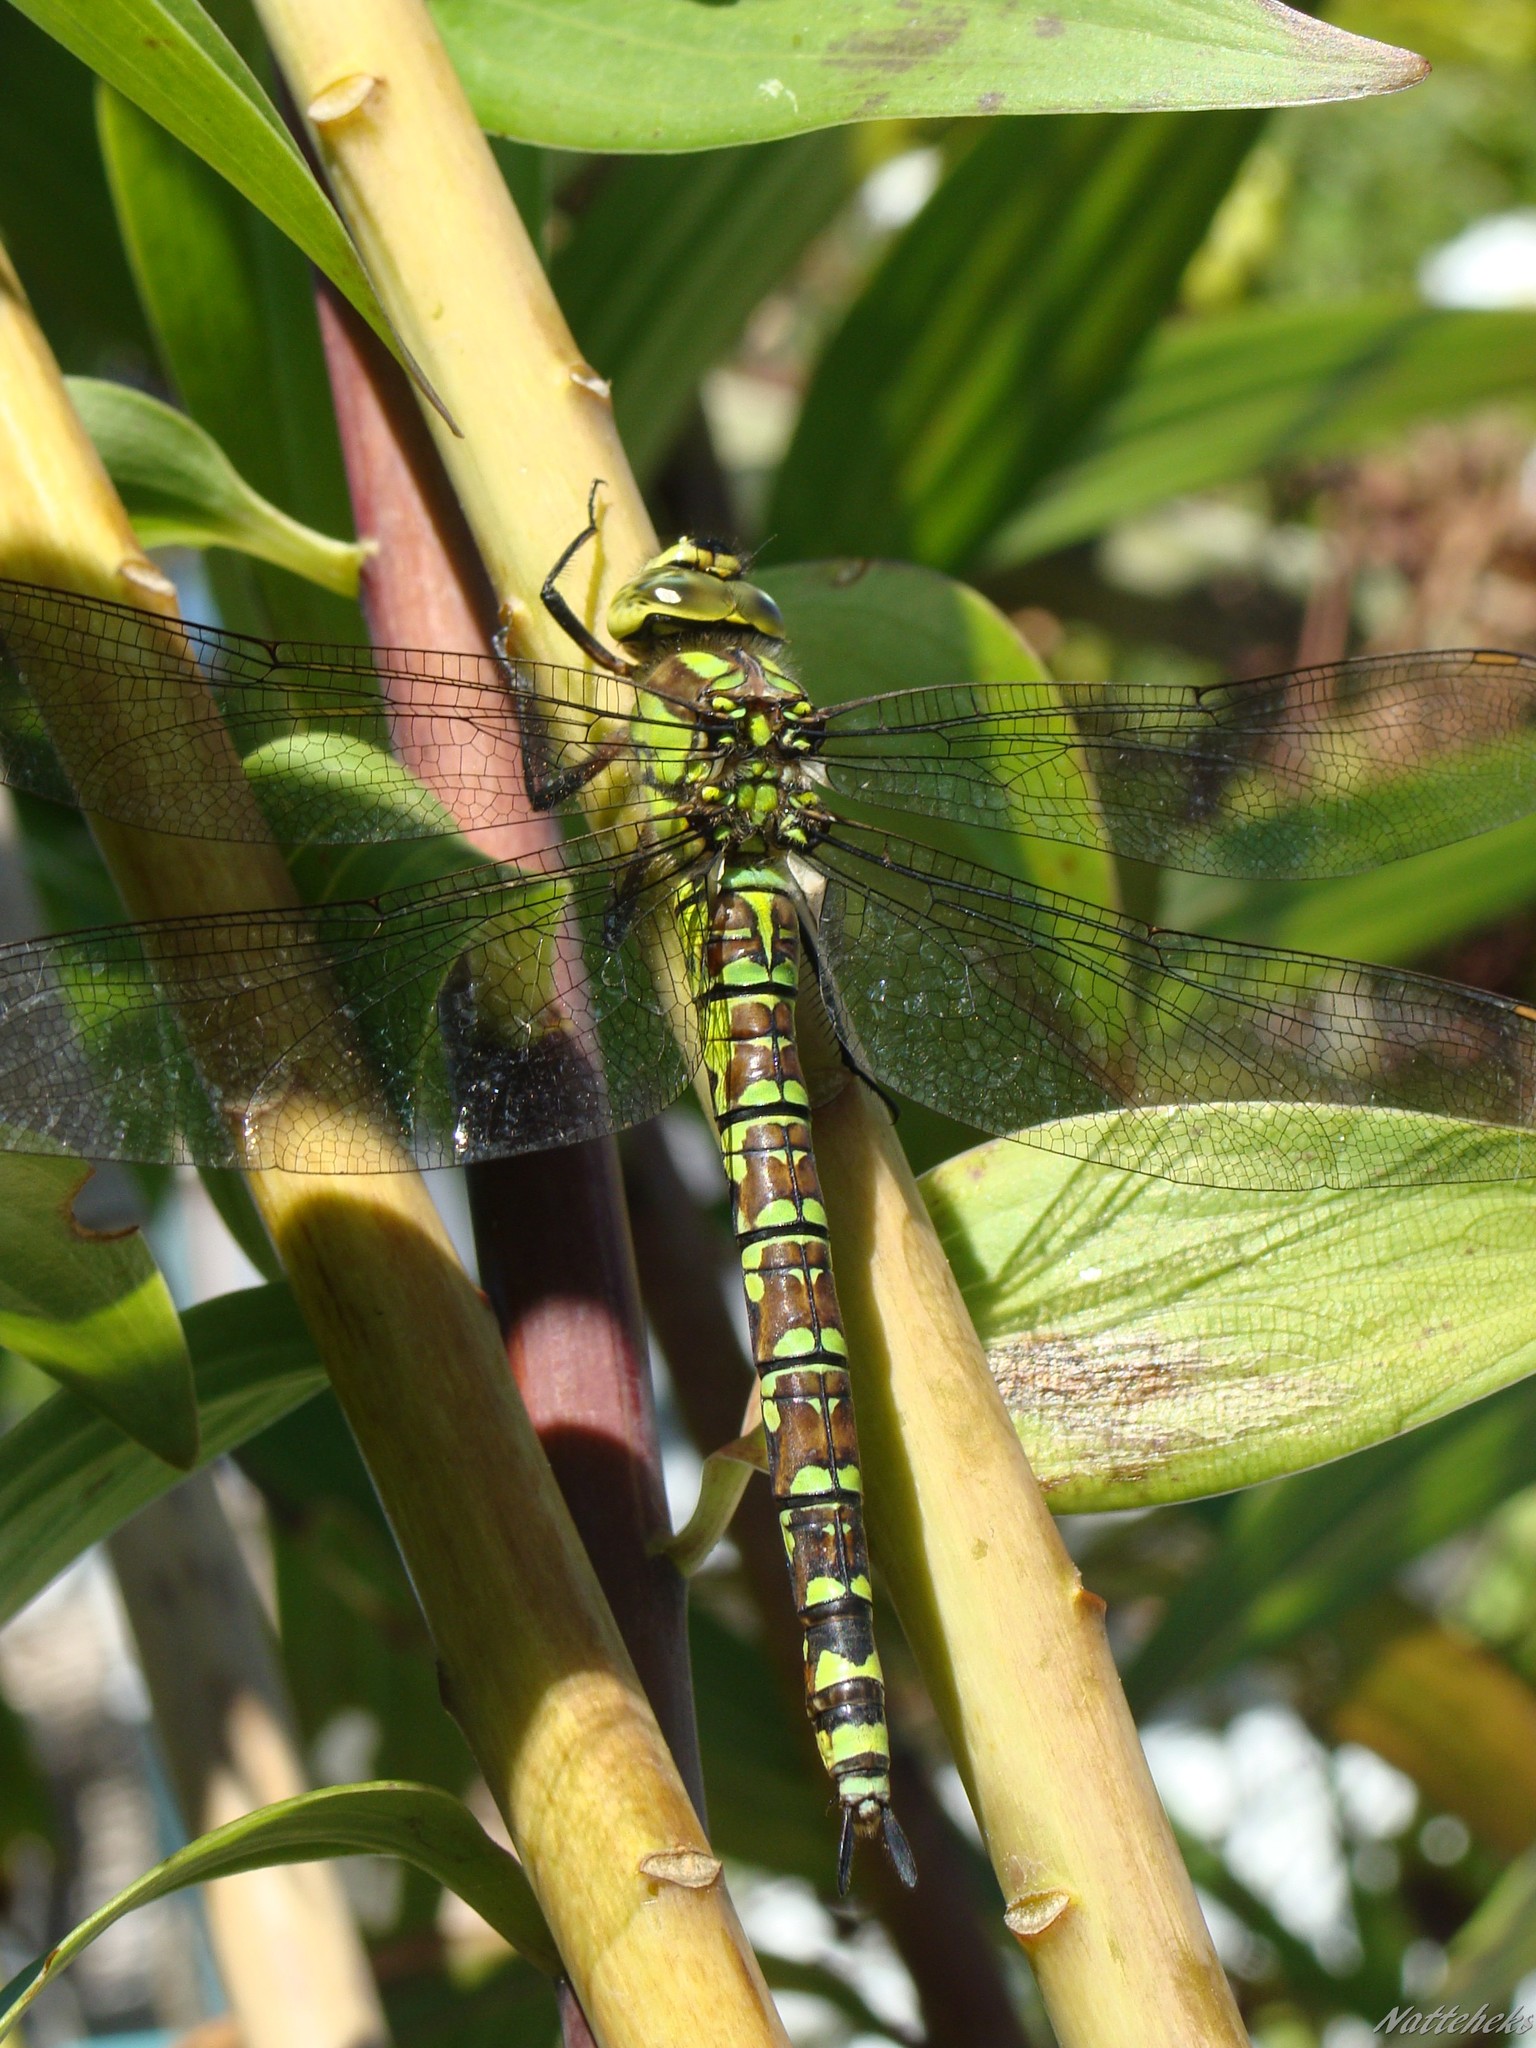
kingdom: Animalia
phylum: Arthropoda
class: Insecta
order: Odonata
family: Aeshnidae
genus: Aeshna
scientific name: Aeshna cyanea
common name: Southern hawker
